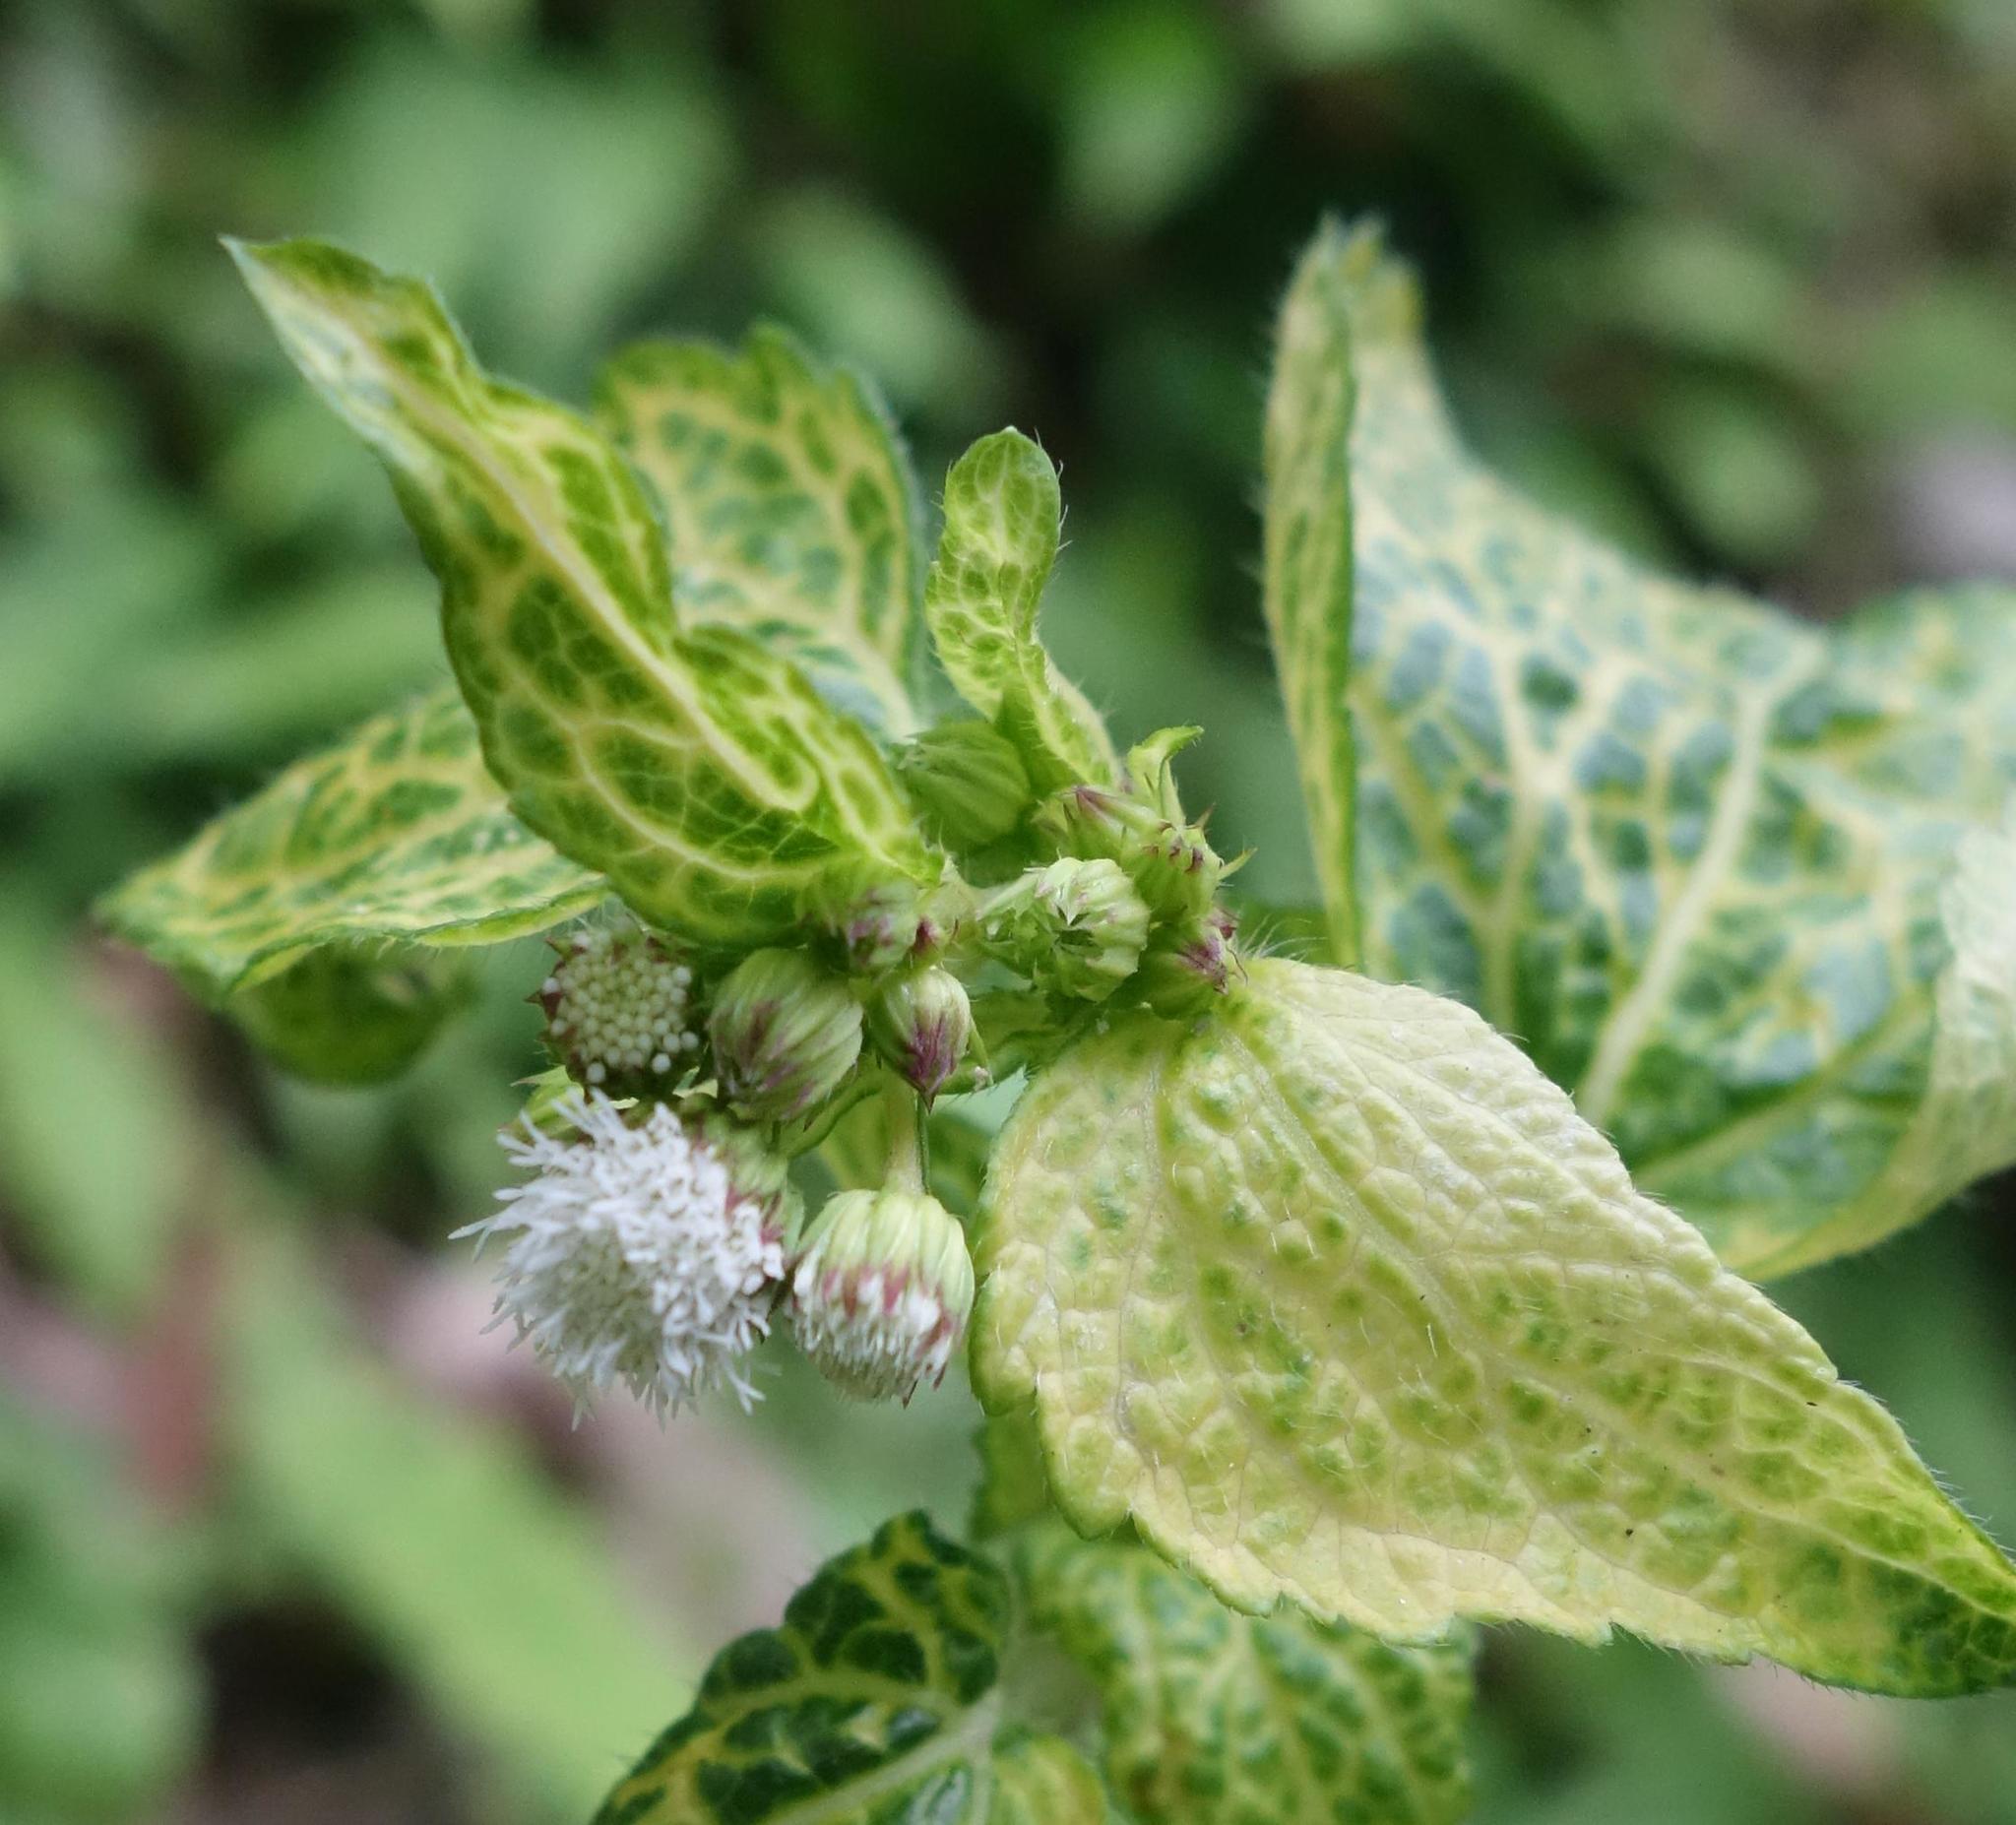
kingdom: Plantae
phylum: Tracheophyta
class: Magnoliopsida
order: Asterales
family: Asteraceae
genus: Ageratum
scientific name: Ageratum conyzoides
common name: Tropical whiteweed
